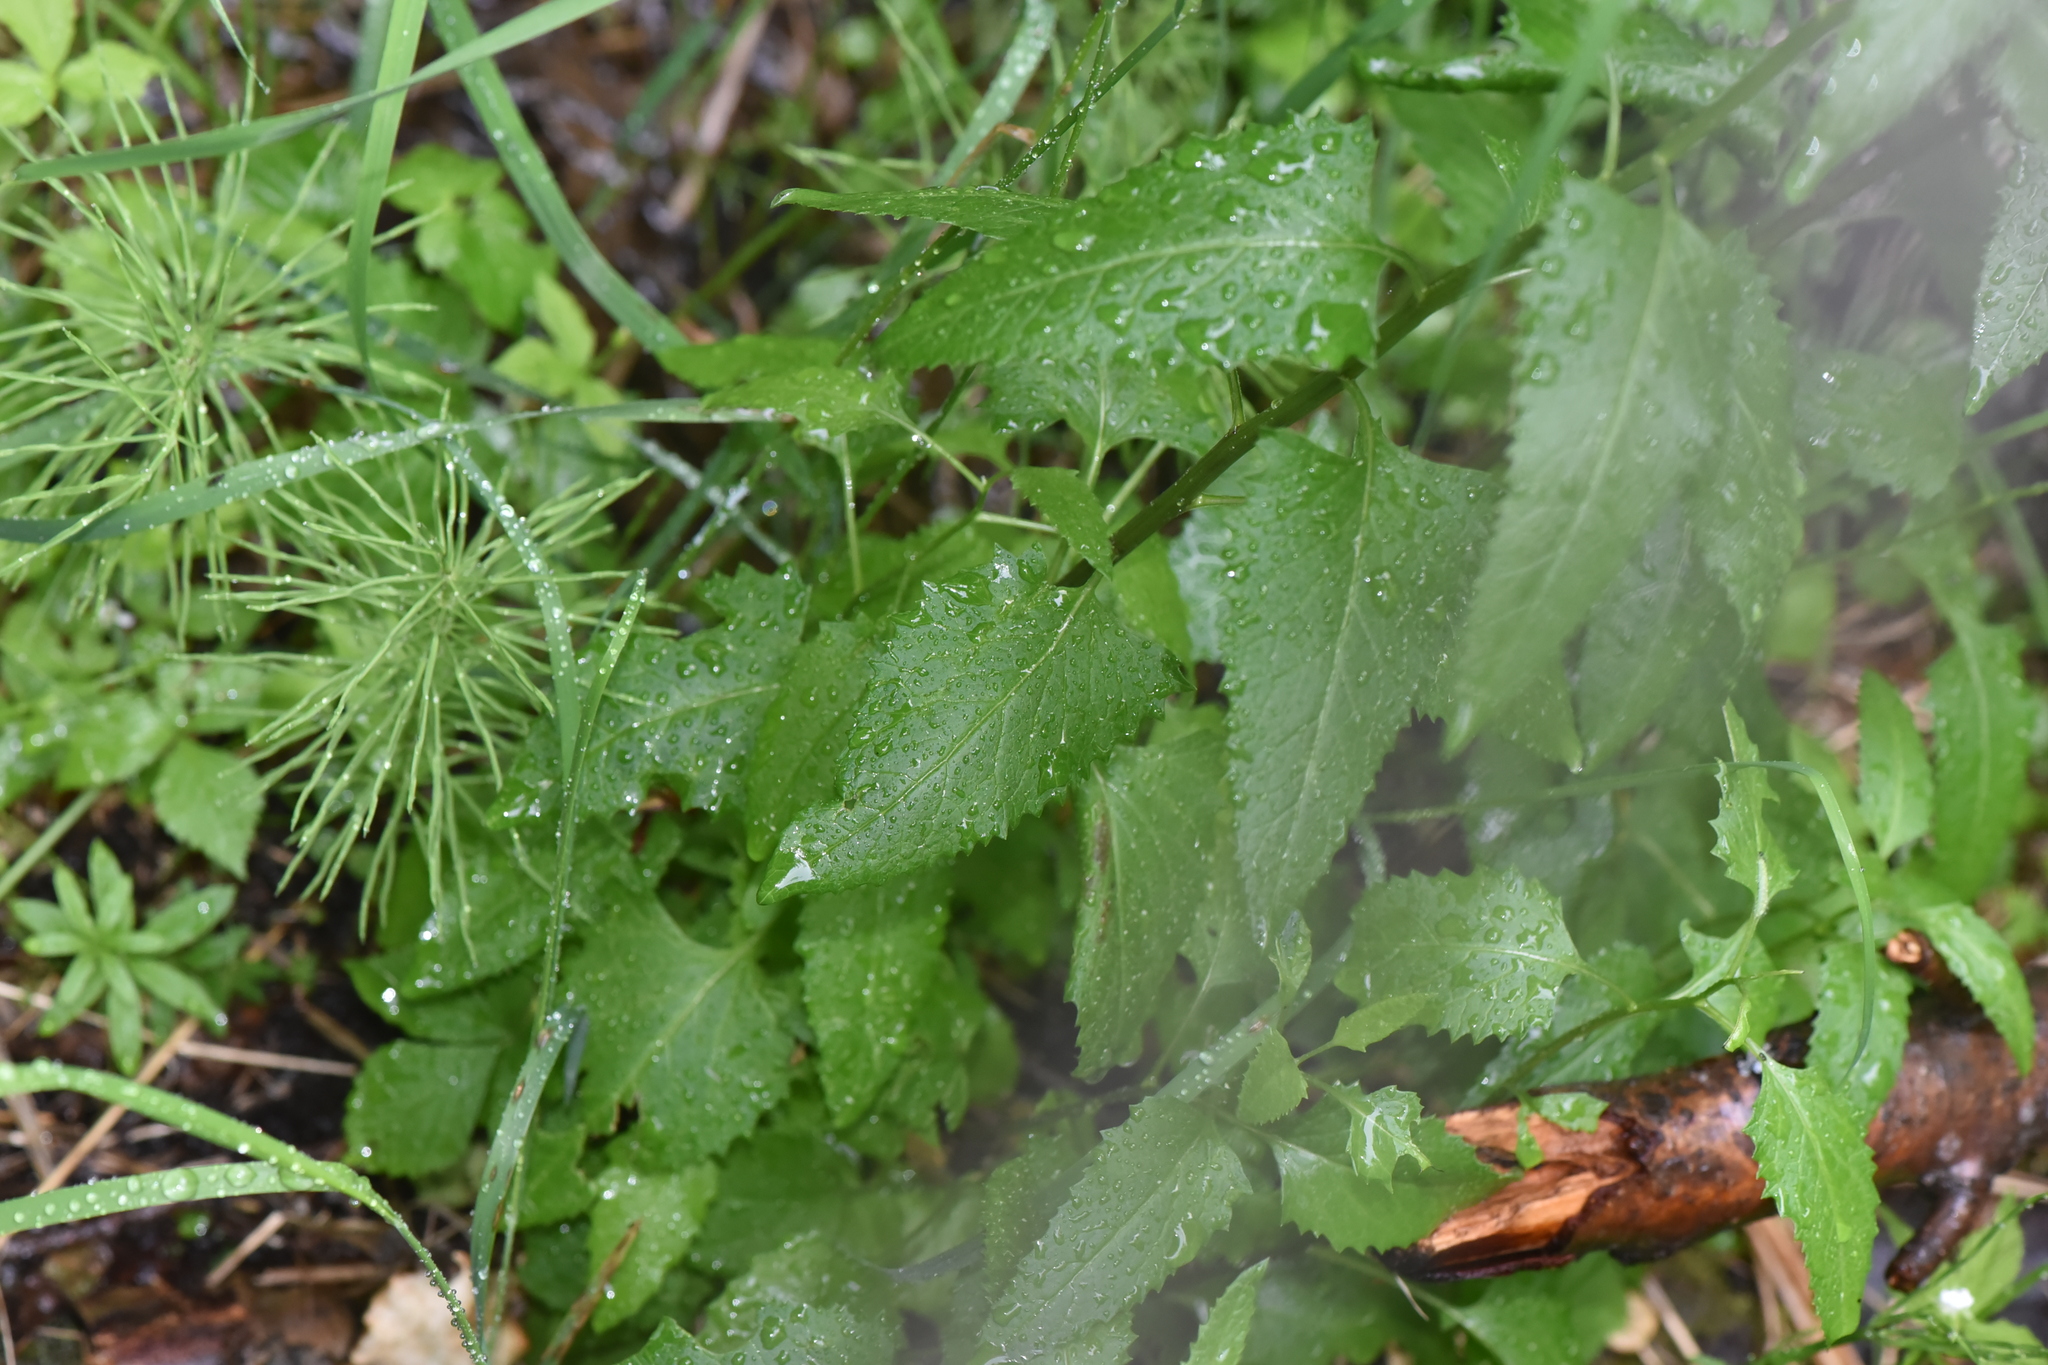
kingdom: Plantae
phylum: Tracheophyta
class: Magnoliopsida
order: Asterales
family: Asteraceae
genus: Senecio
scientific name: Senecio triangularis
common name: Arrowleaf butterweed
